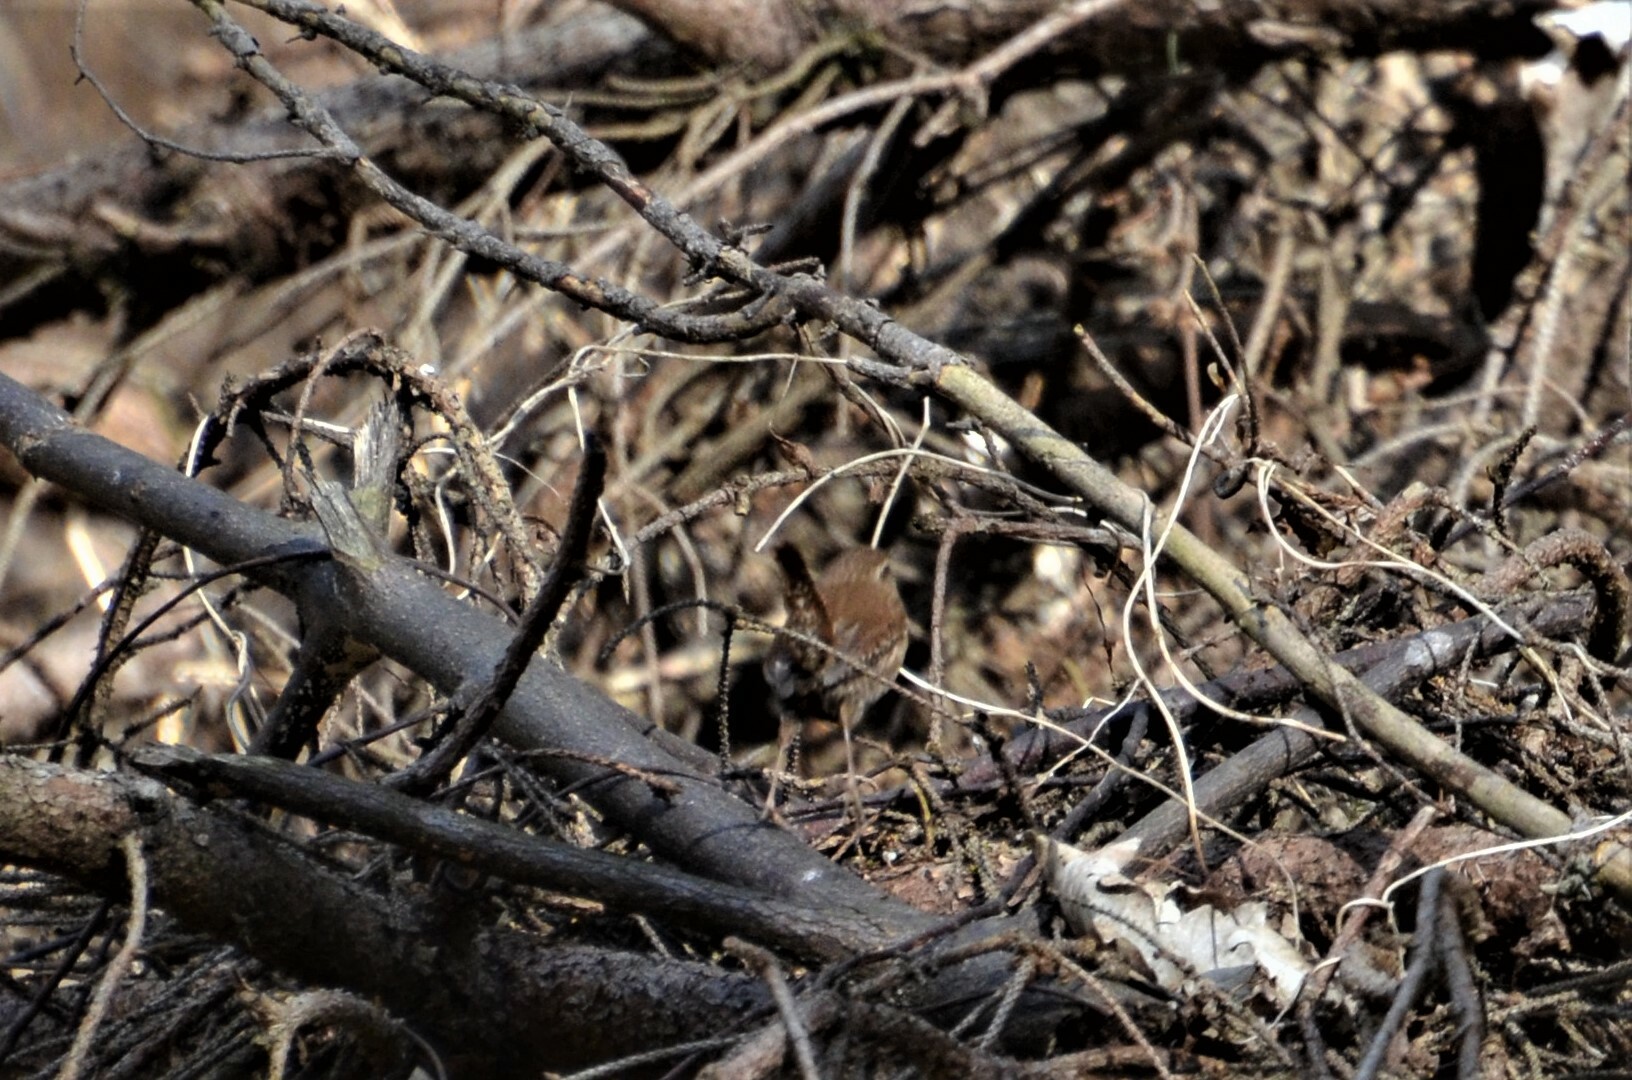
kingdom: Animalia
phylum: Chordata
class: Aves
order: Passeriformes
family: Troglodytidae
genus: Troglodytes
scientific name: Troglodytes troglodytes
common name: Eurasian wren
